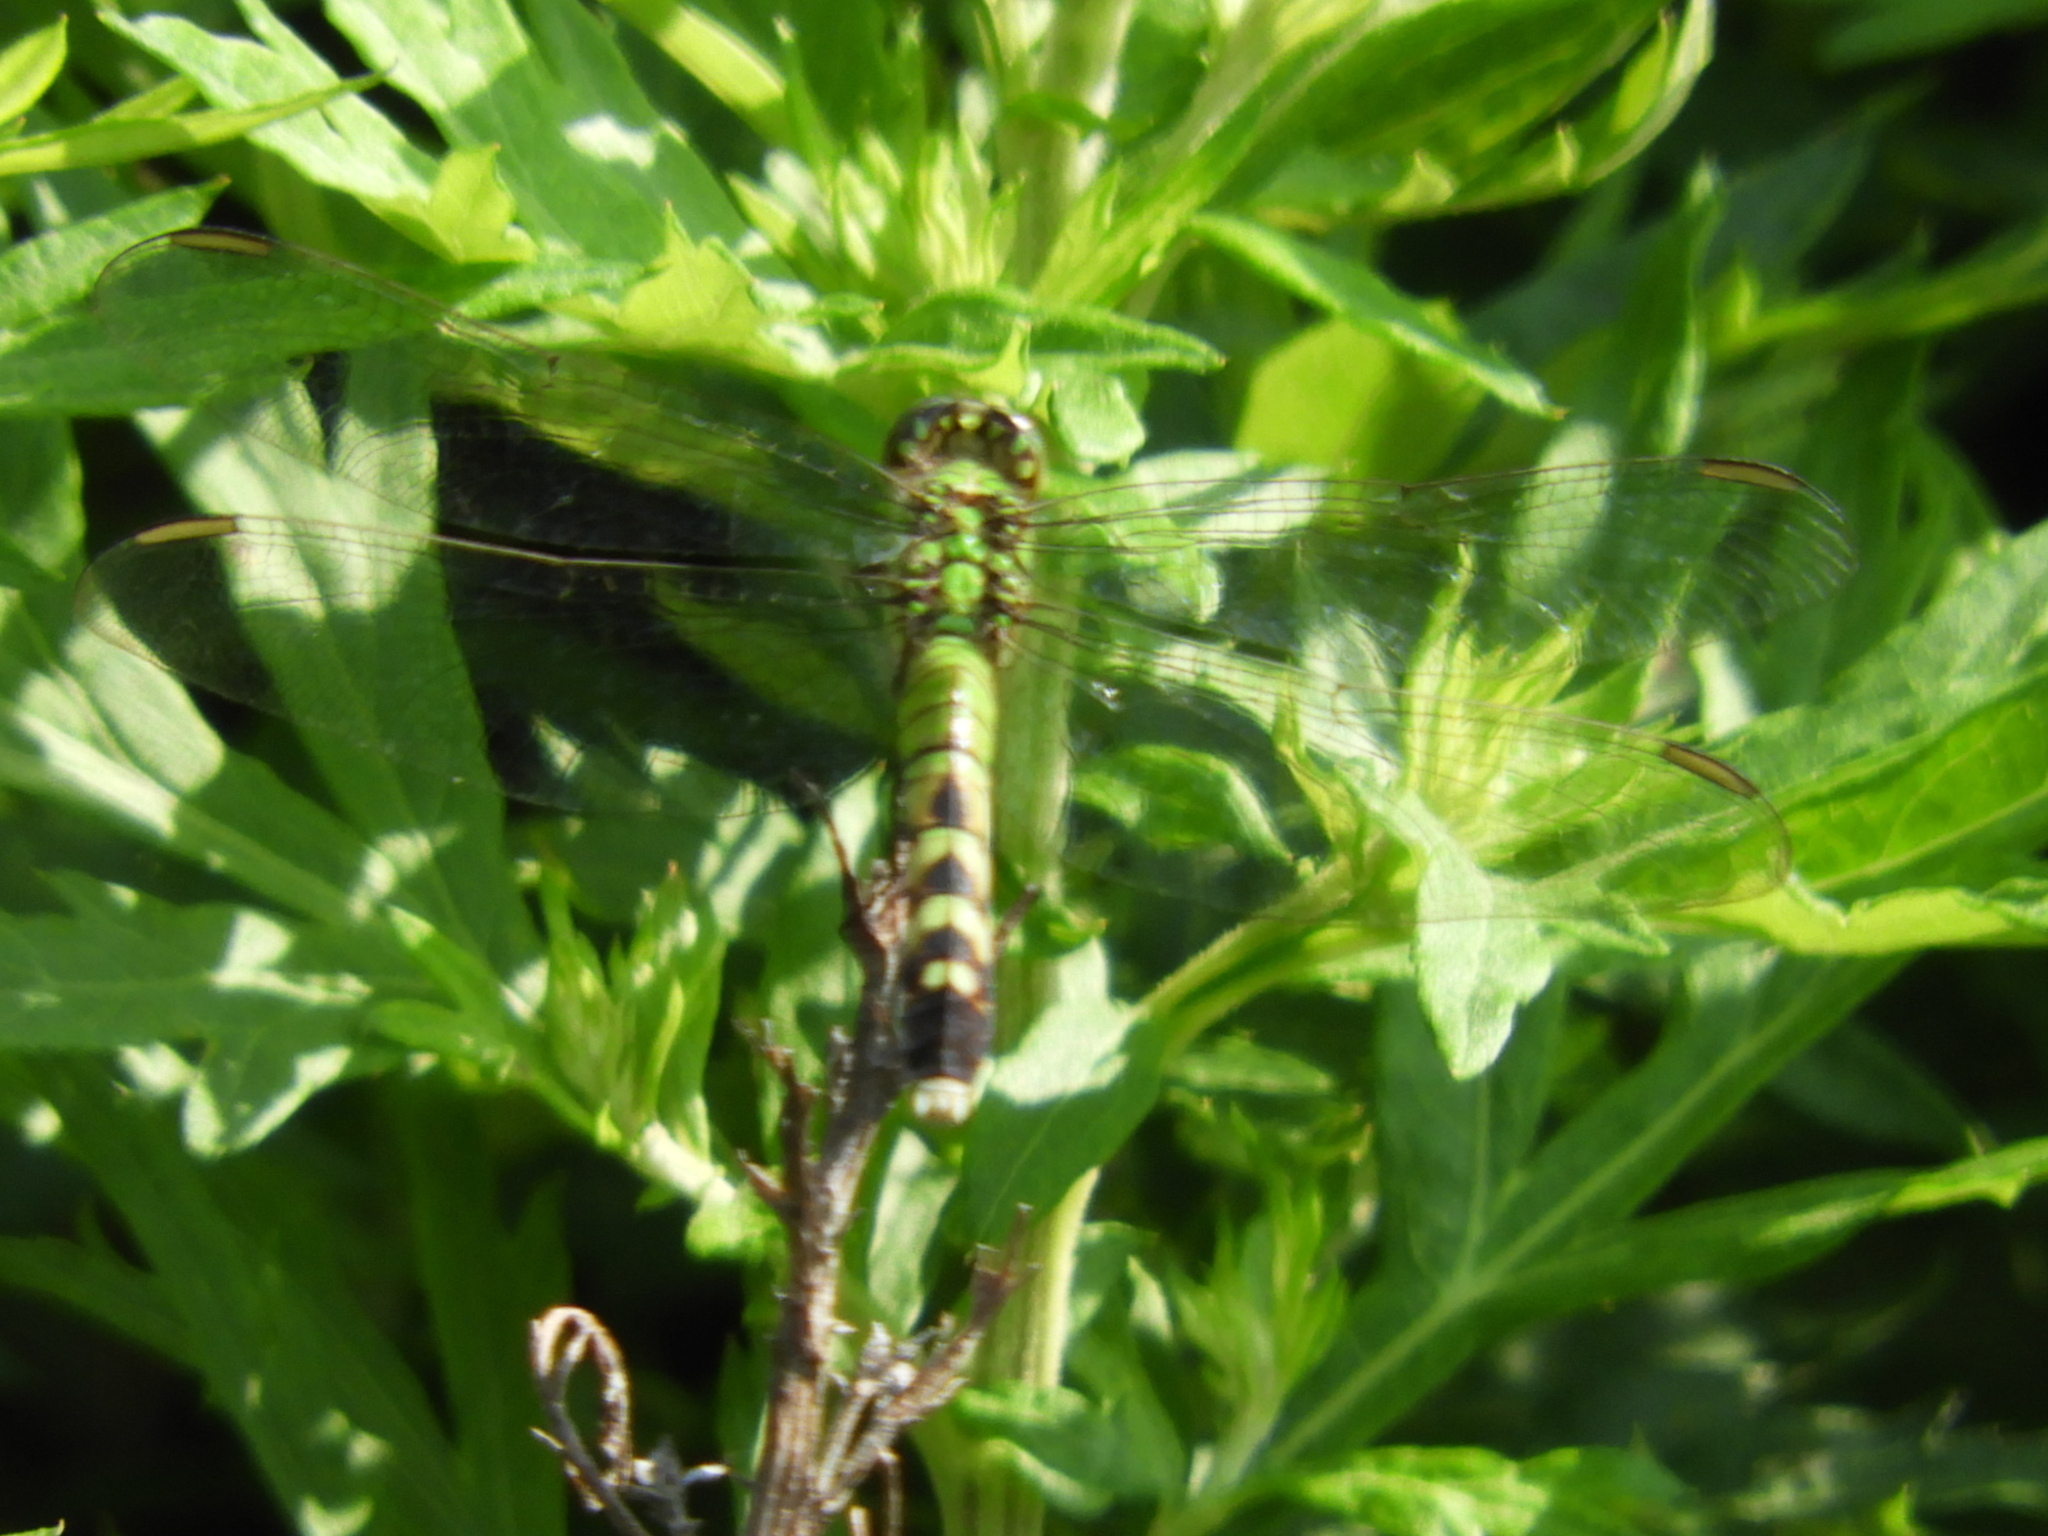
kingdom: Animalia
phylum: Arthropoda
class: Insecta
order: Odonata
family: Libellulidae
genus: Erythemis
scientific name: Erythemis simplicicollis
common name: Eastern pondhawk
